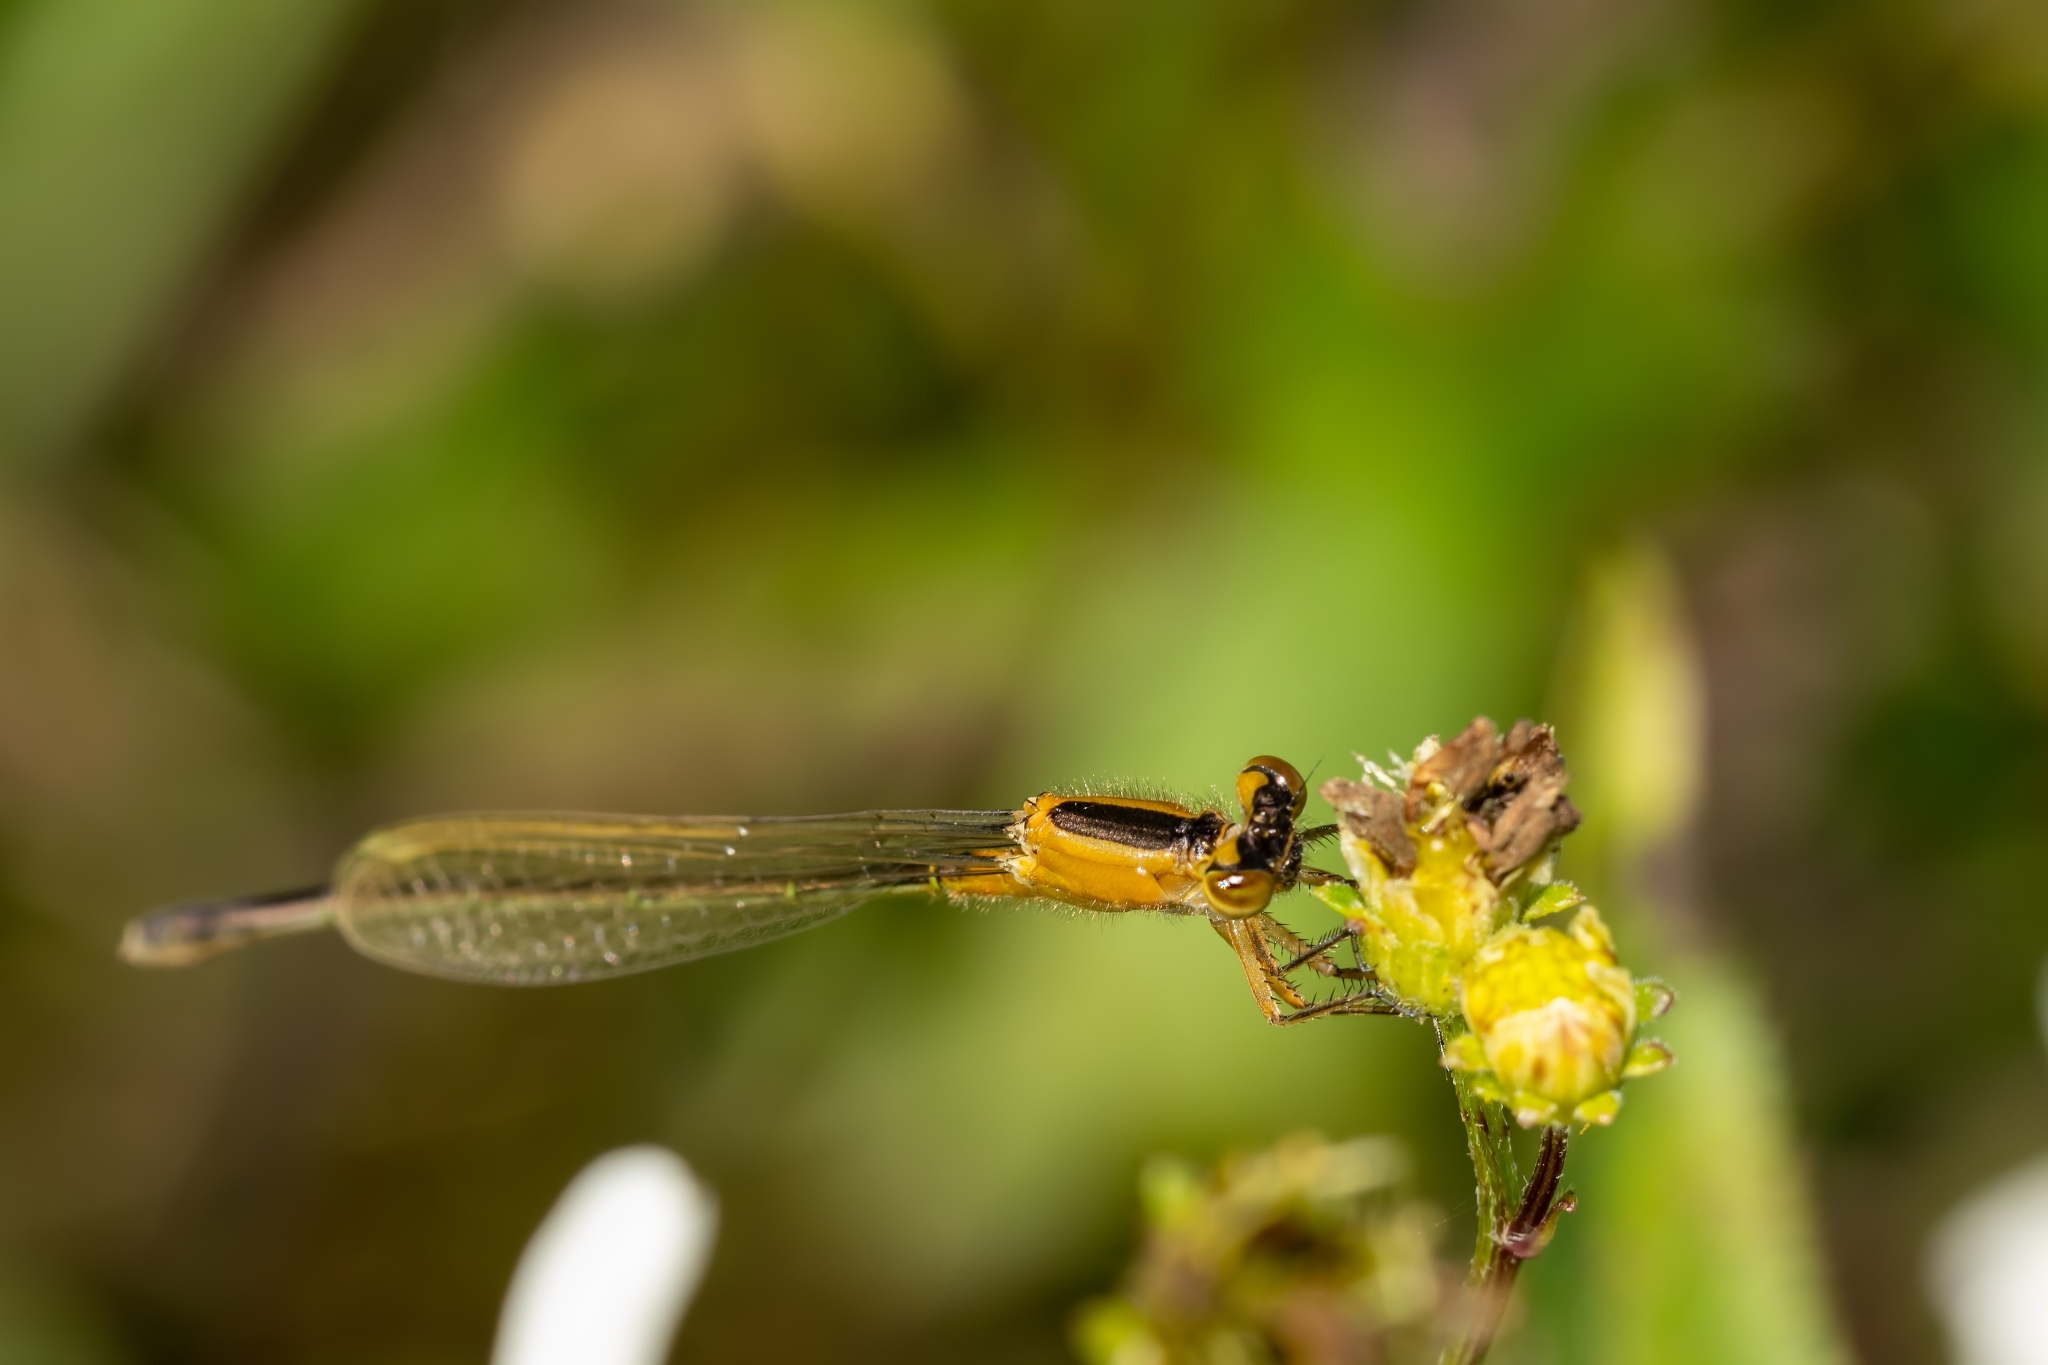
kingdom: Animalia
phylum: Arthropoda
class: Insecta
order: Odonata
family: Coenagrionidae
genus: Ischnura
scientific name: Ischnura ramburii
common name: Rambur's forktail
